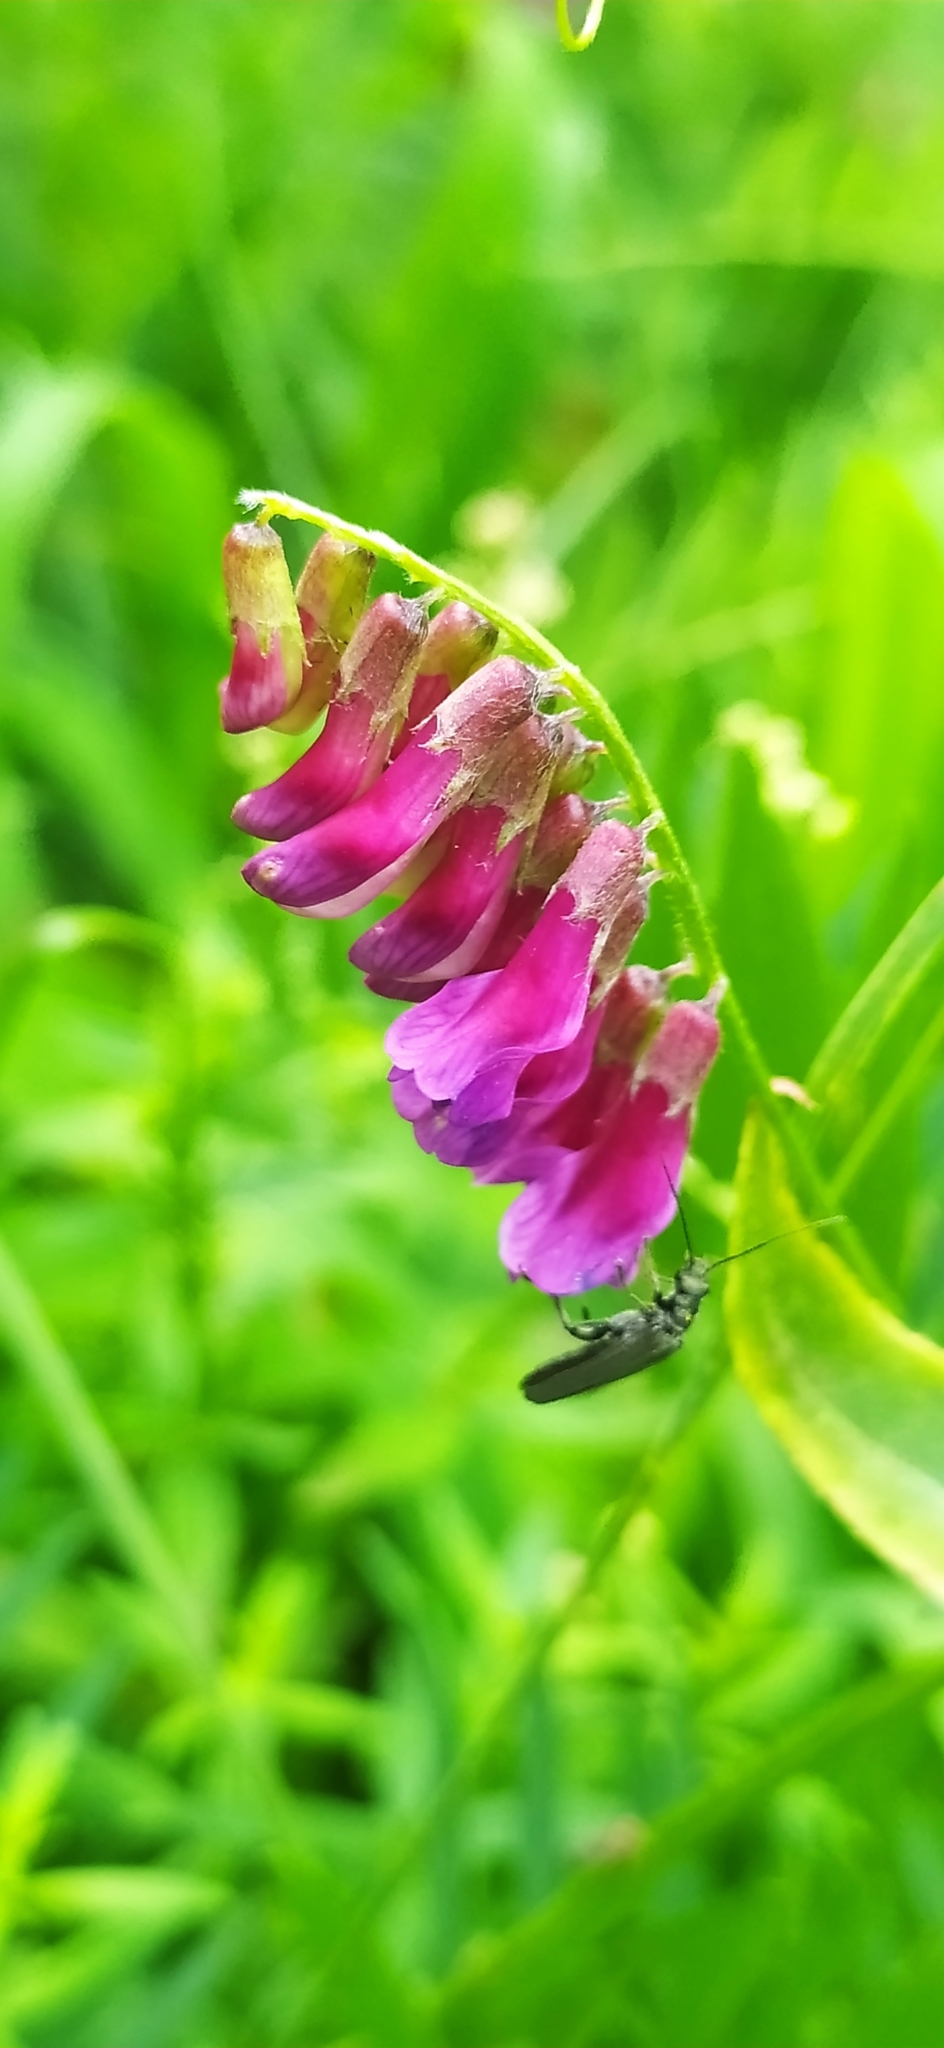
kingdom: Plantae
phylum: Tracheophyta
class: Magnoliopsida
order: Fabales
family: Fabaceae
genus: Vicia
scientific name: Vicia megalotropis
